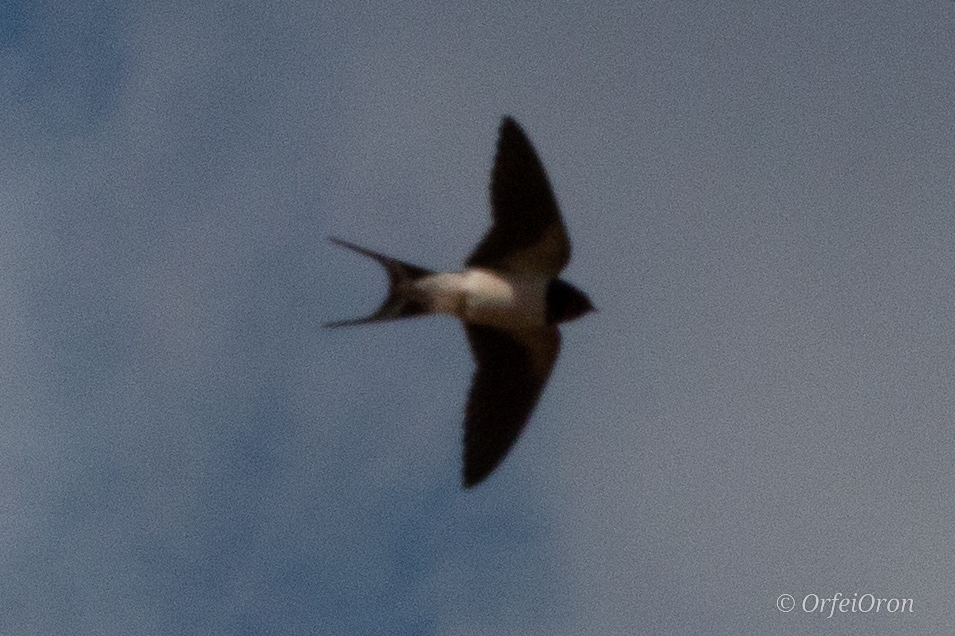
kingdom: Animalia
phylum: Chordata
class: Aves
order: Passeriformes
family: Hirundinidae
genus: Hirundo
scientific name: Hirundo rustica
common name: Barn swallow
